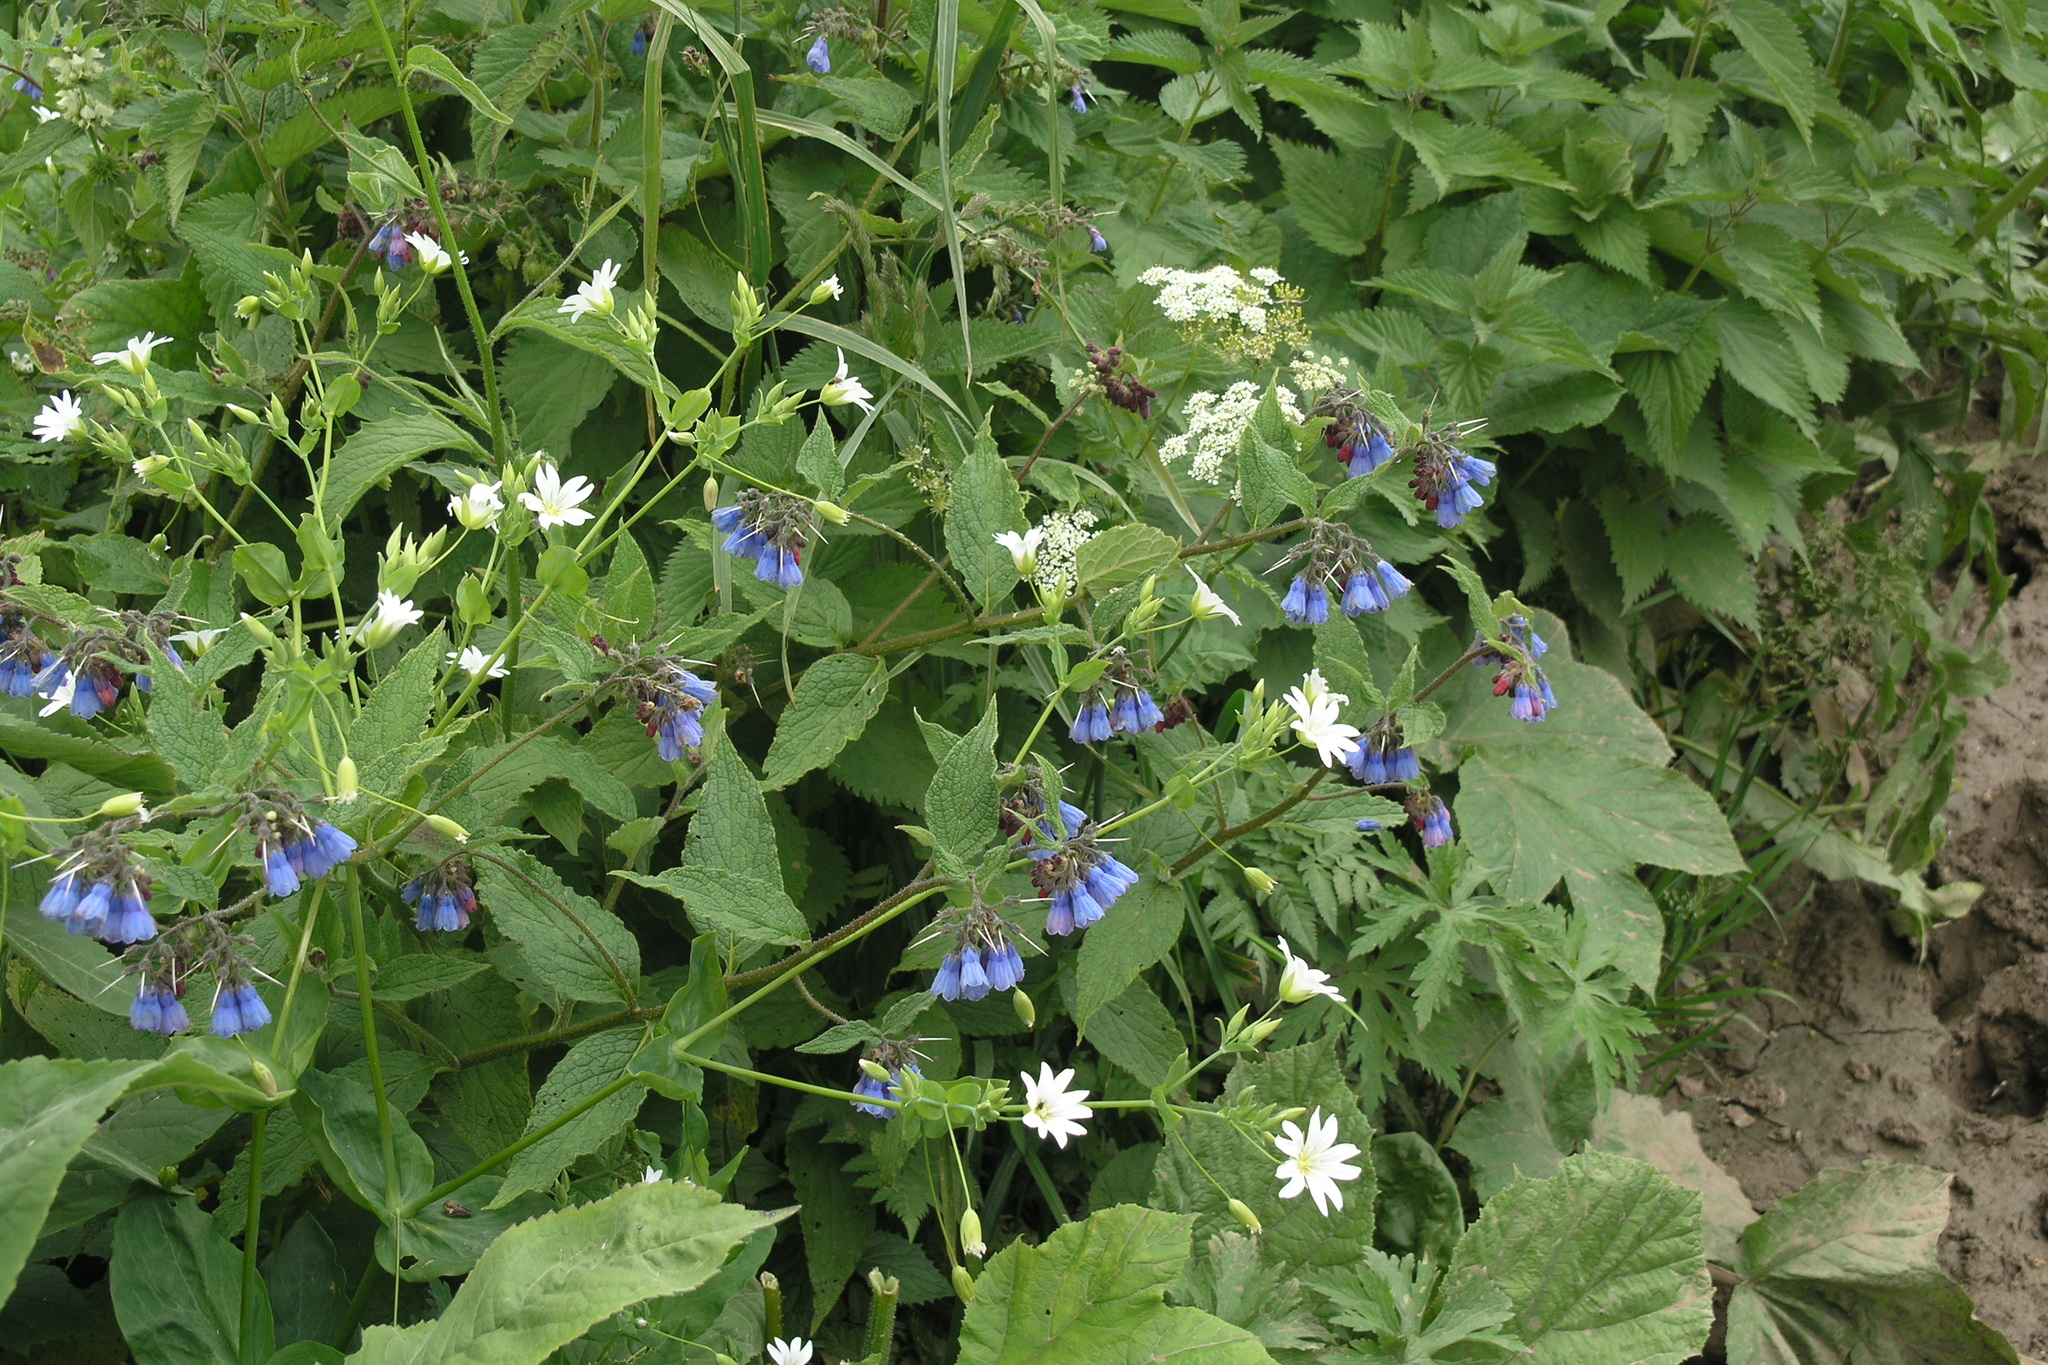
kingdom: Plantae
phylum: Tracheophyta
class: Magnoliopsida
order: Caryophyllales
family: Caryophyllaceae
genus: Cerastium
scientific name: Cerastium davuricum
